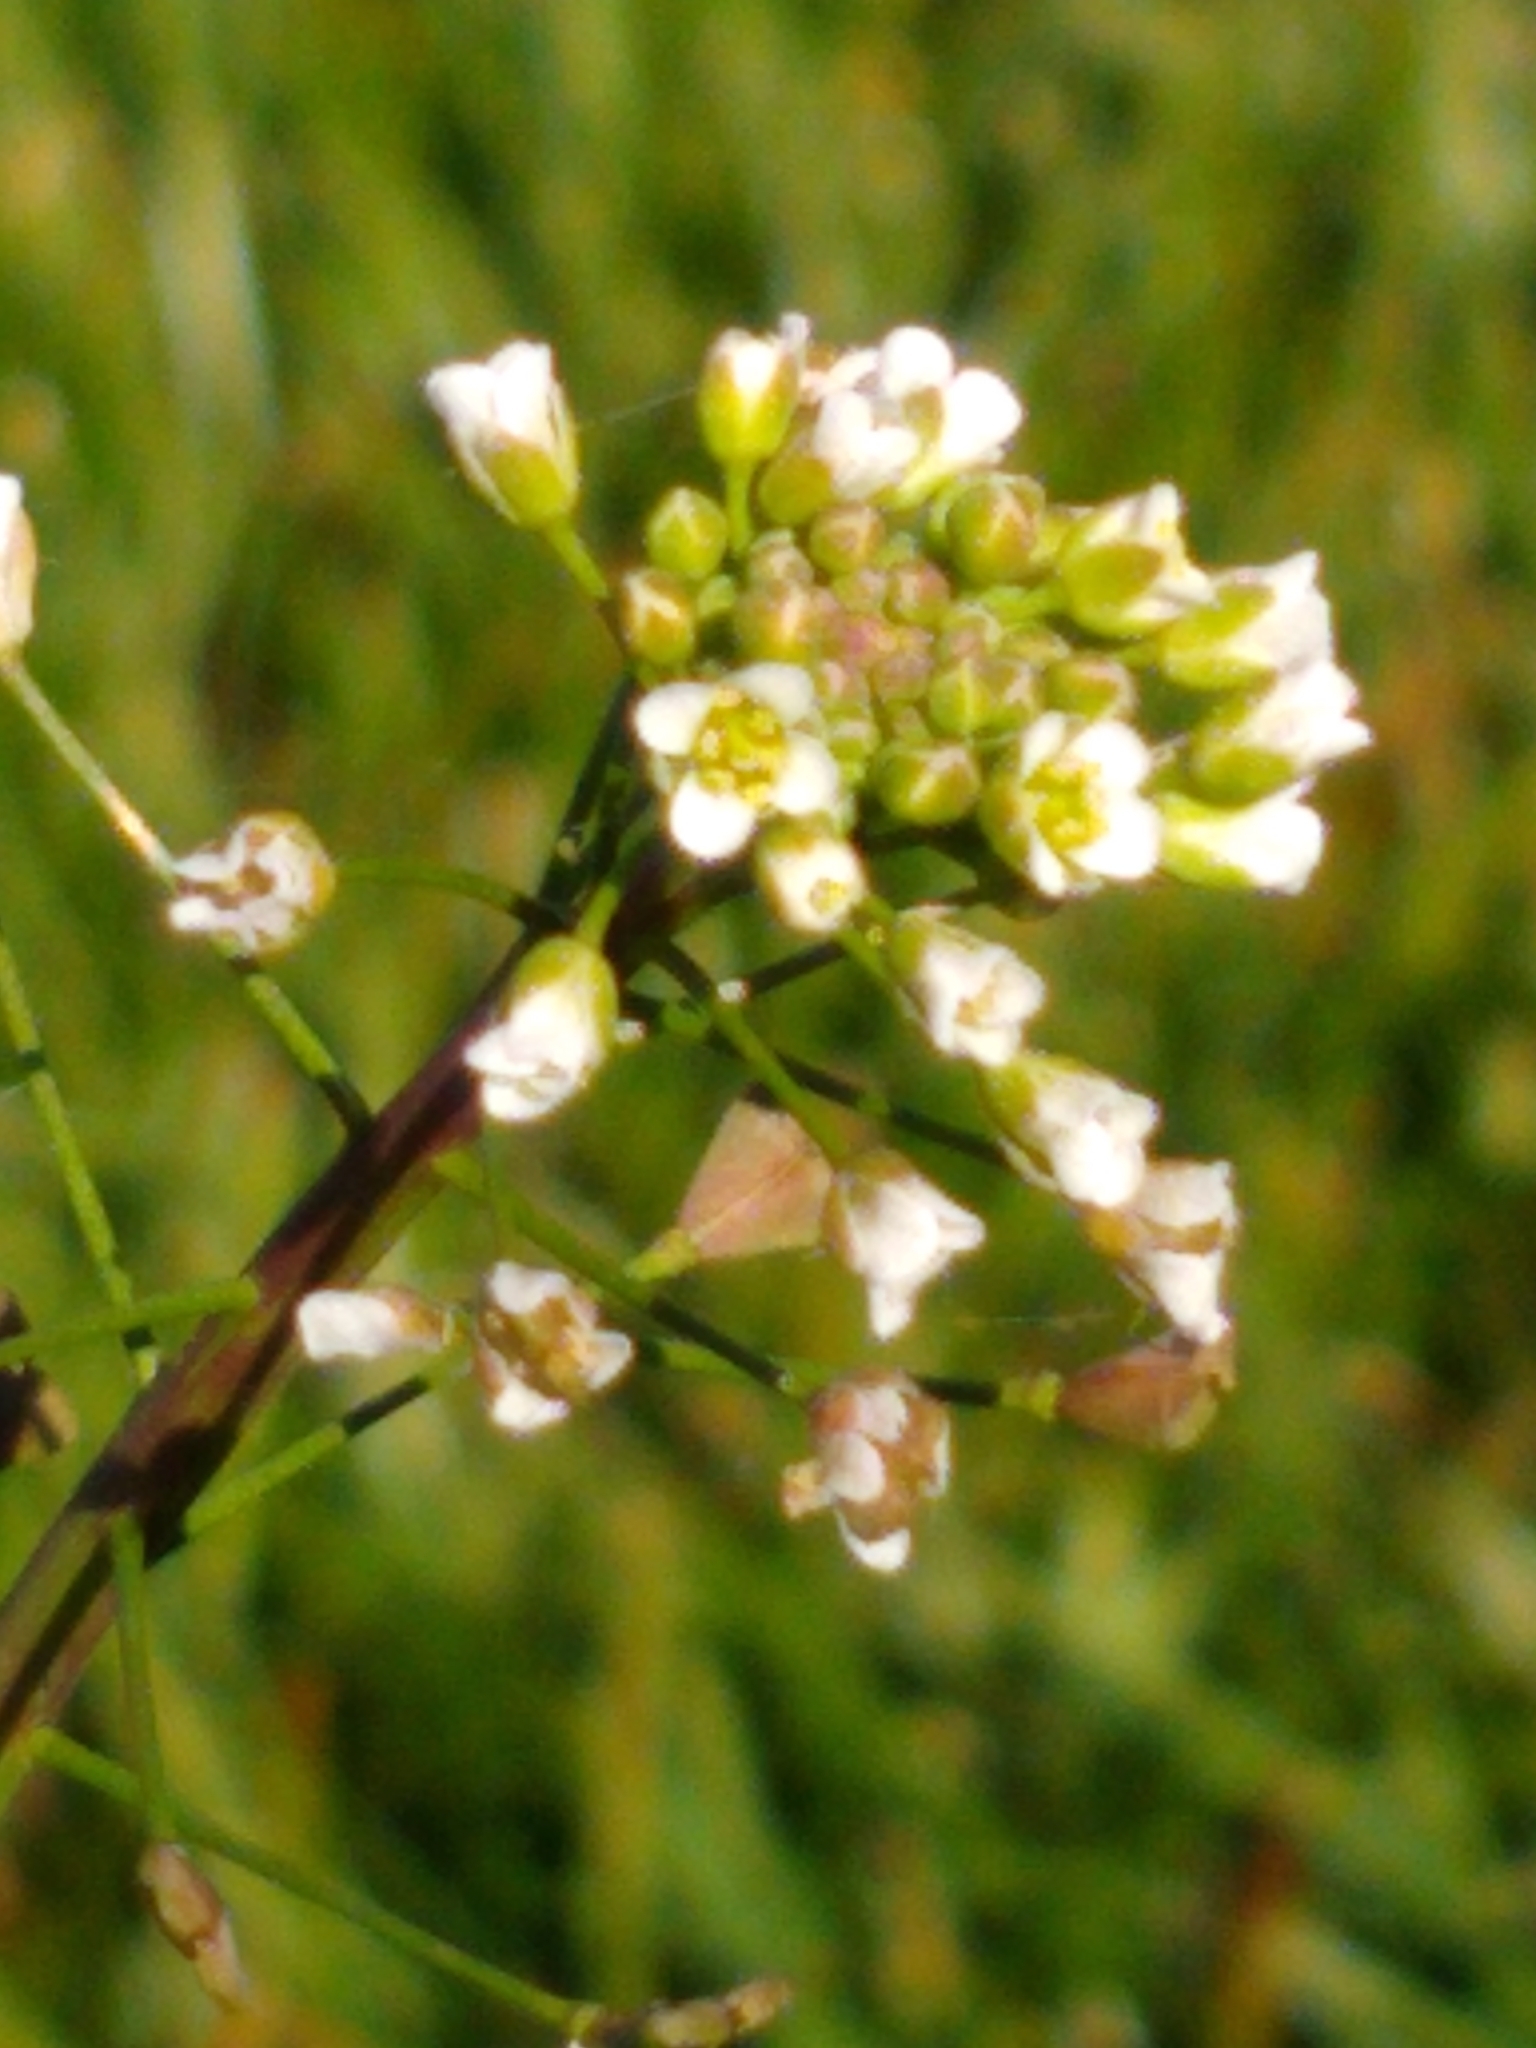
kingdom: Plantae
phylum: Tracheophyta
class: Magnoliopsida
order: Brassicales
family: Brassicaceae
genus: Capsella
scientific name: Capsella bursa-pastoris
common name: Shepherd's purse
